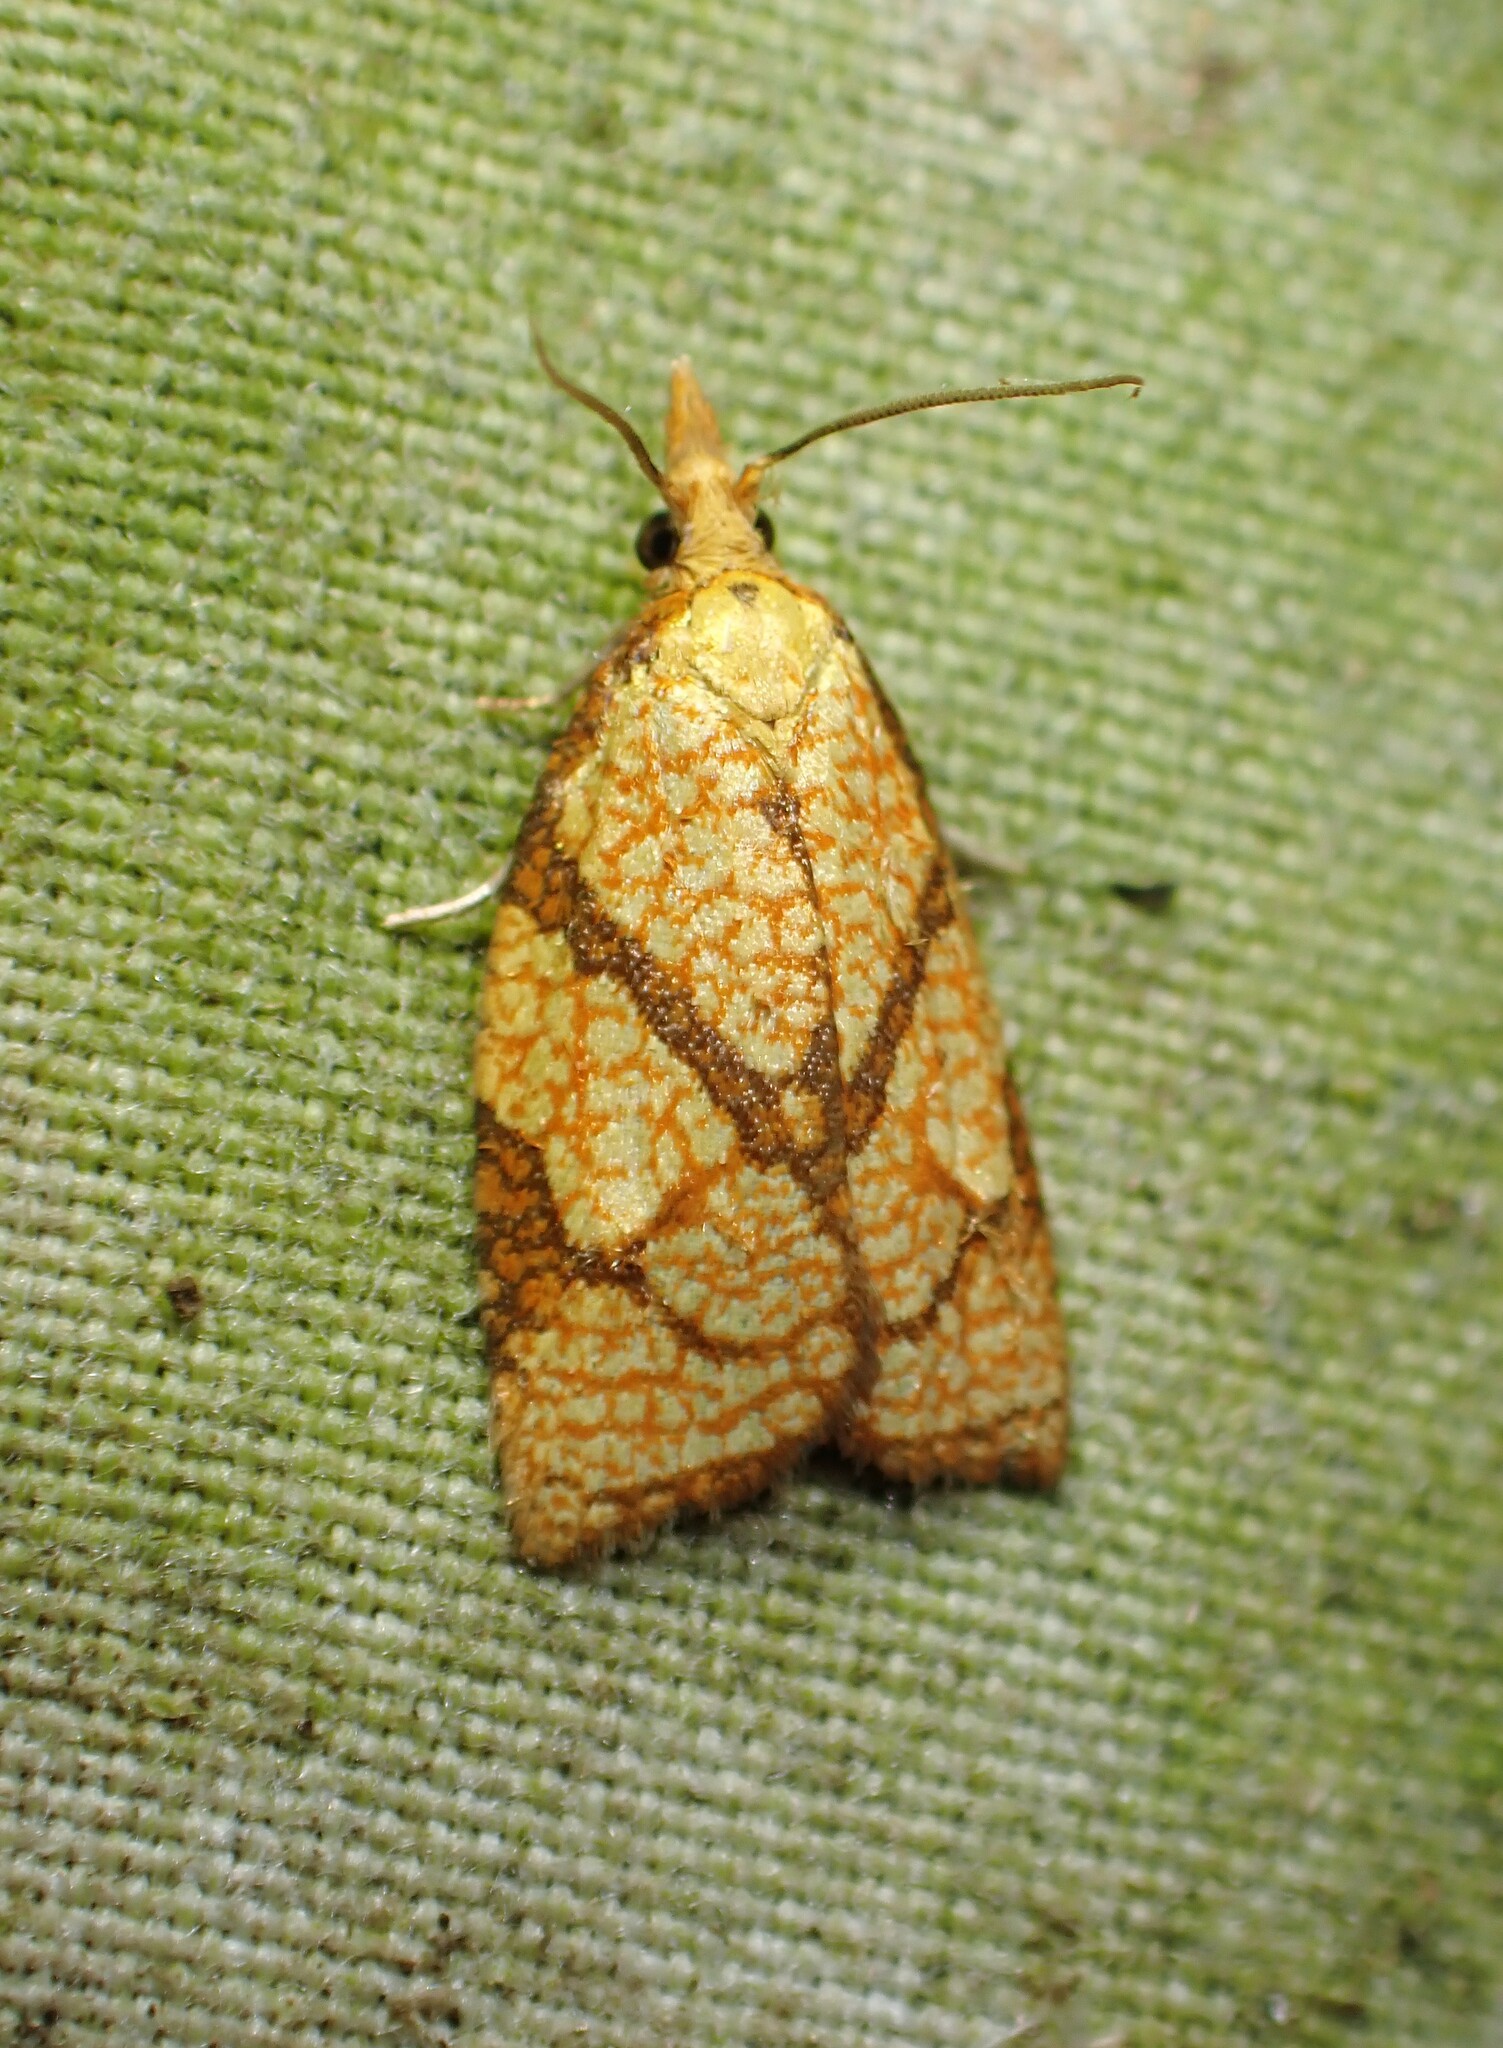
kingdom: Animalia
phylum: Arthropoda
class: Insecta
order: Lepidoptera
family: Tortricidae
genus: Cenopis
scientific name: Cenopis reticulatana
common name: Reticulated fruitworm moth
